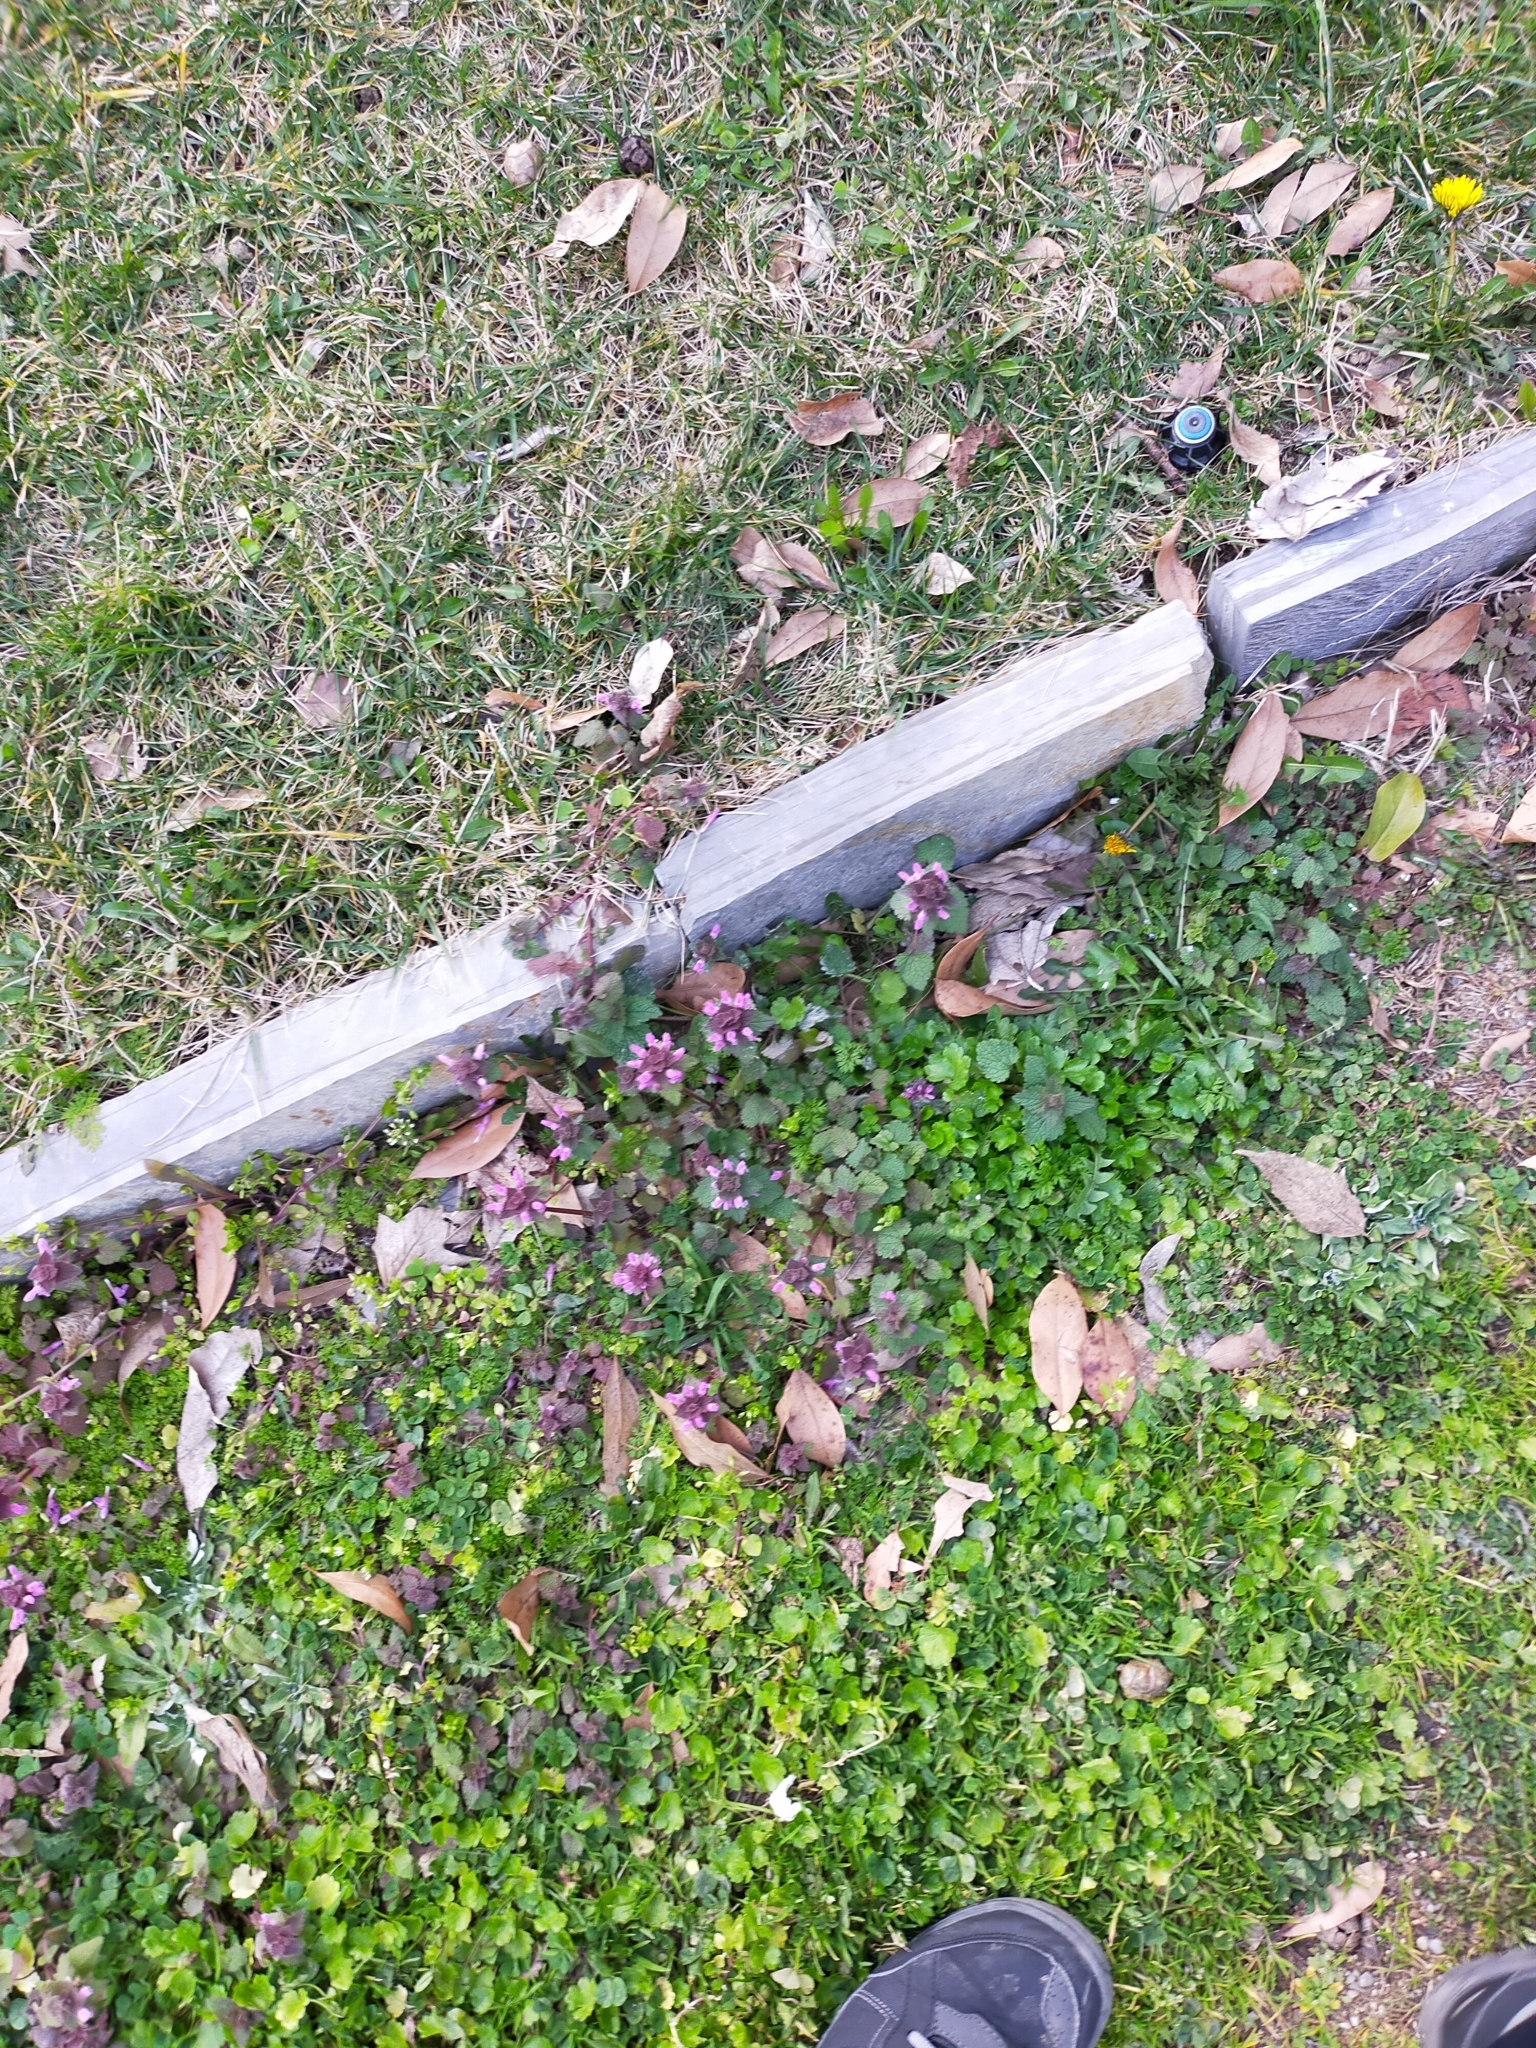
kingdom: Plantae
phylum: Tracheophyta
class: Magnoliopsida
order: Lamiales
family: Lamiaceae
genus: Lamium
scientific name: Lamium purpureum
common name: Red dead-nettle
